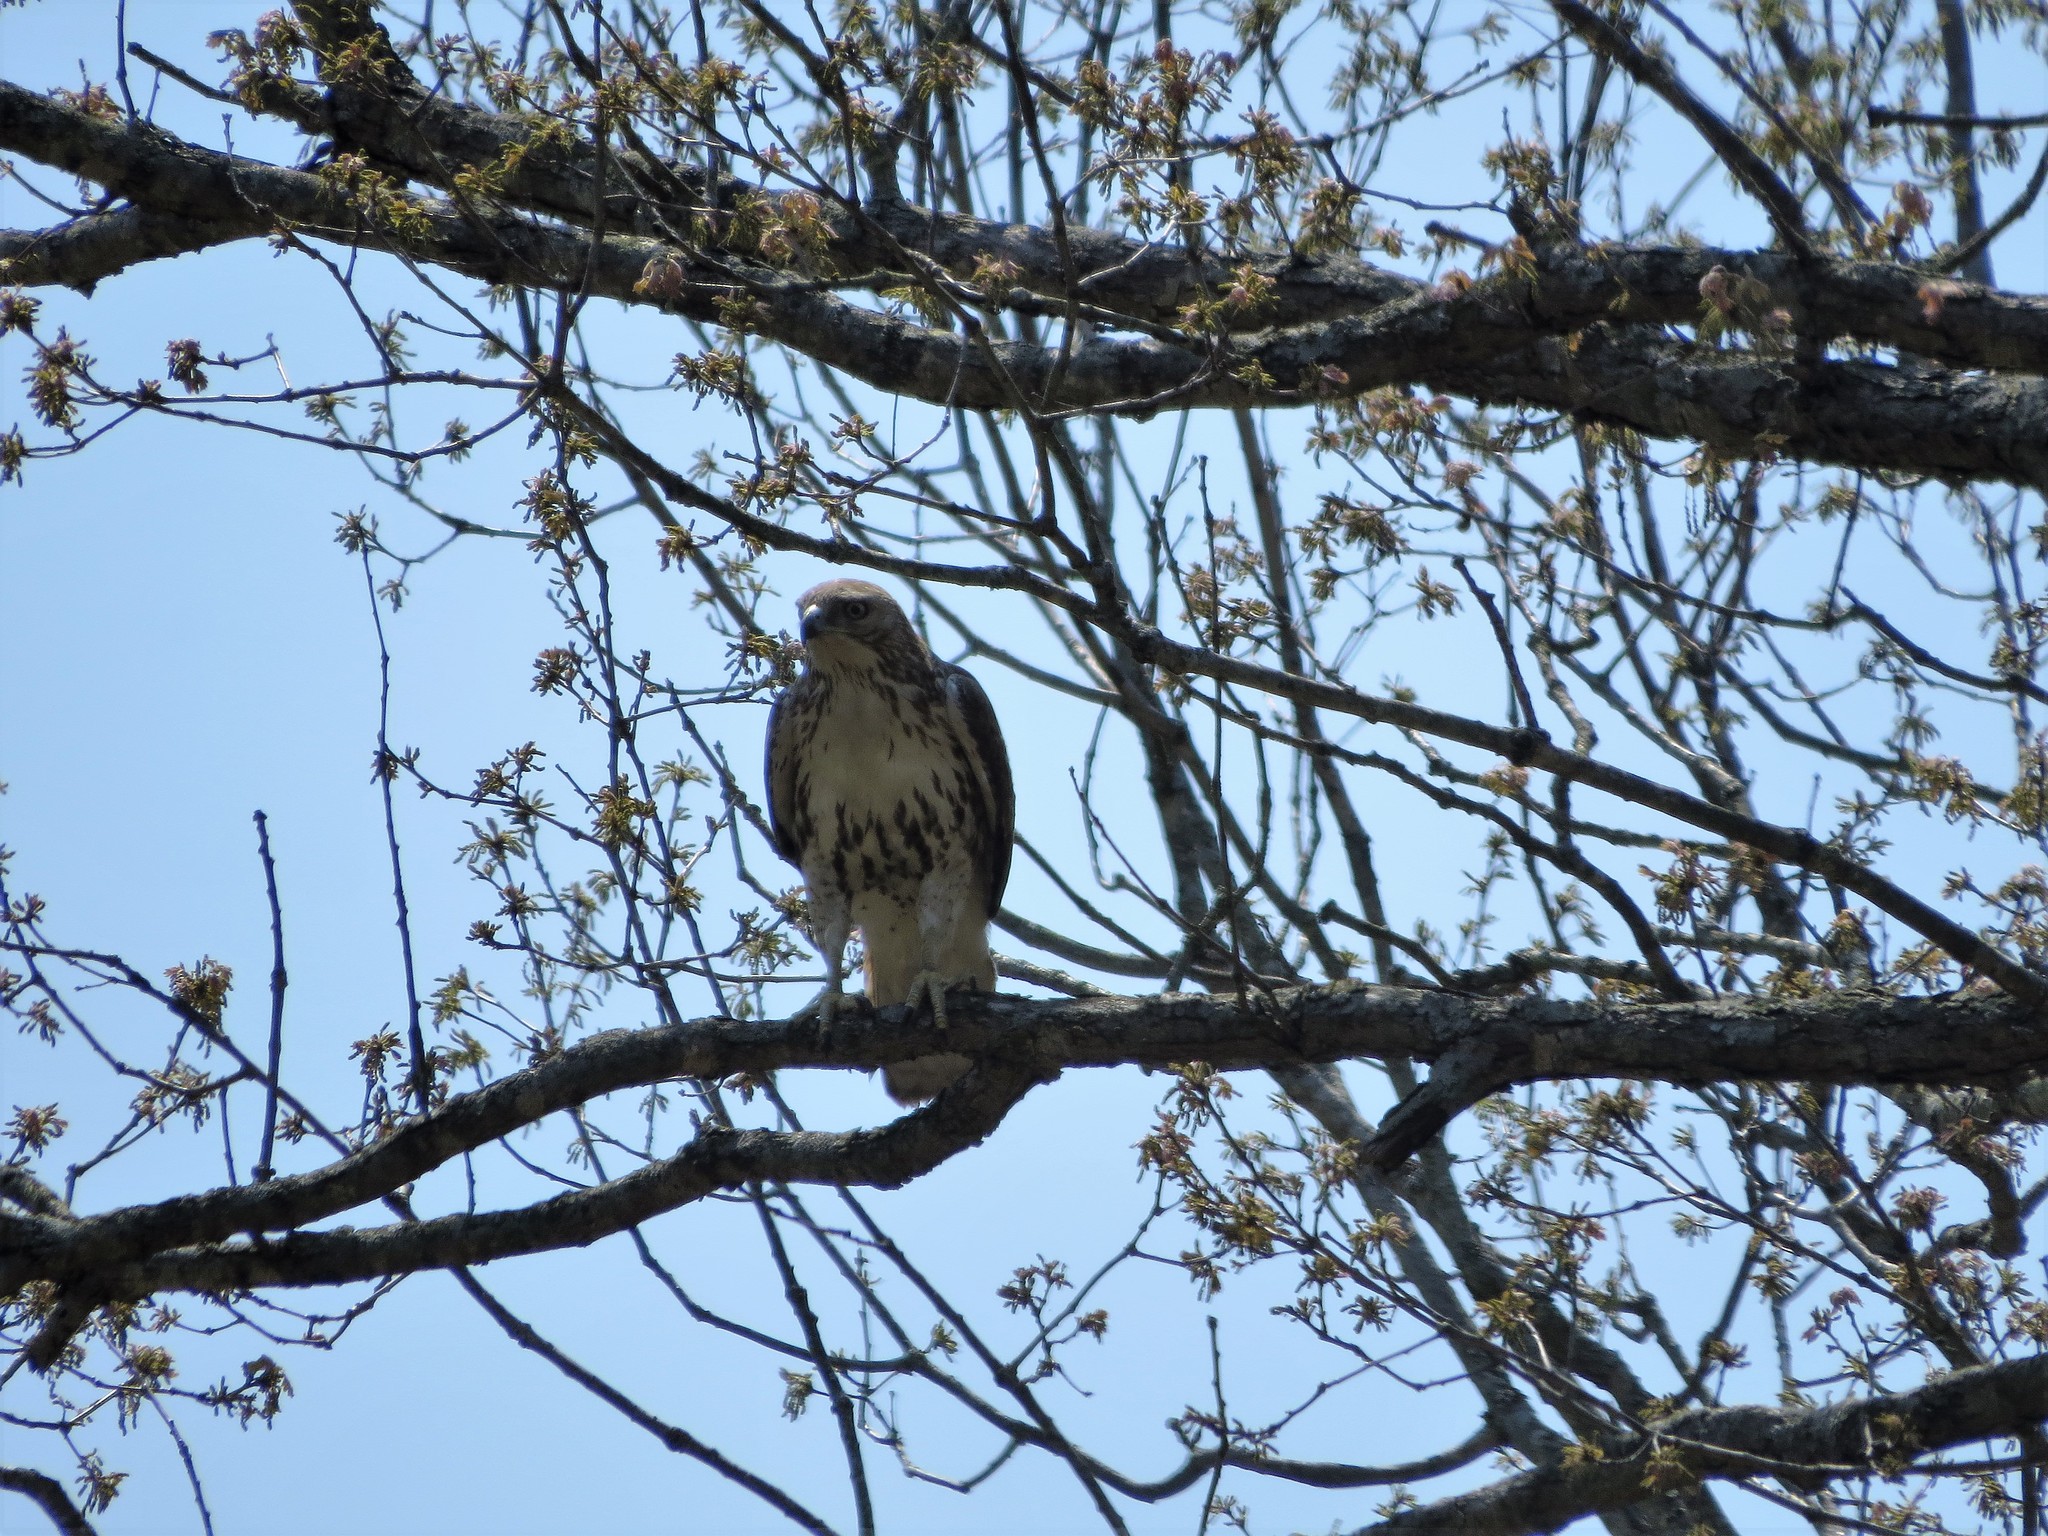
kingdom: Animalia
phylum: Chordata
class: Aves
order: Accipitriformes
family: Accipitridae
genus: Buteo
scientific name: Buteo jamaicensis
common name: Red-tailed hawk
